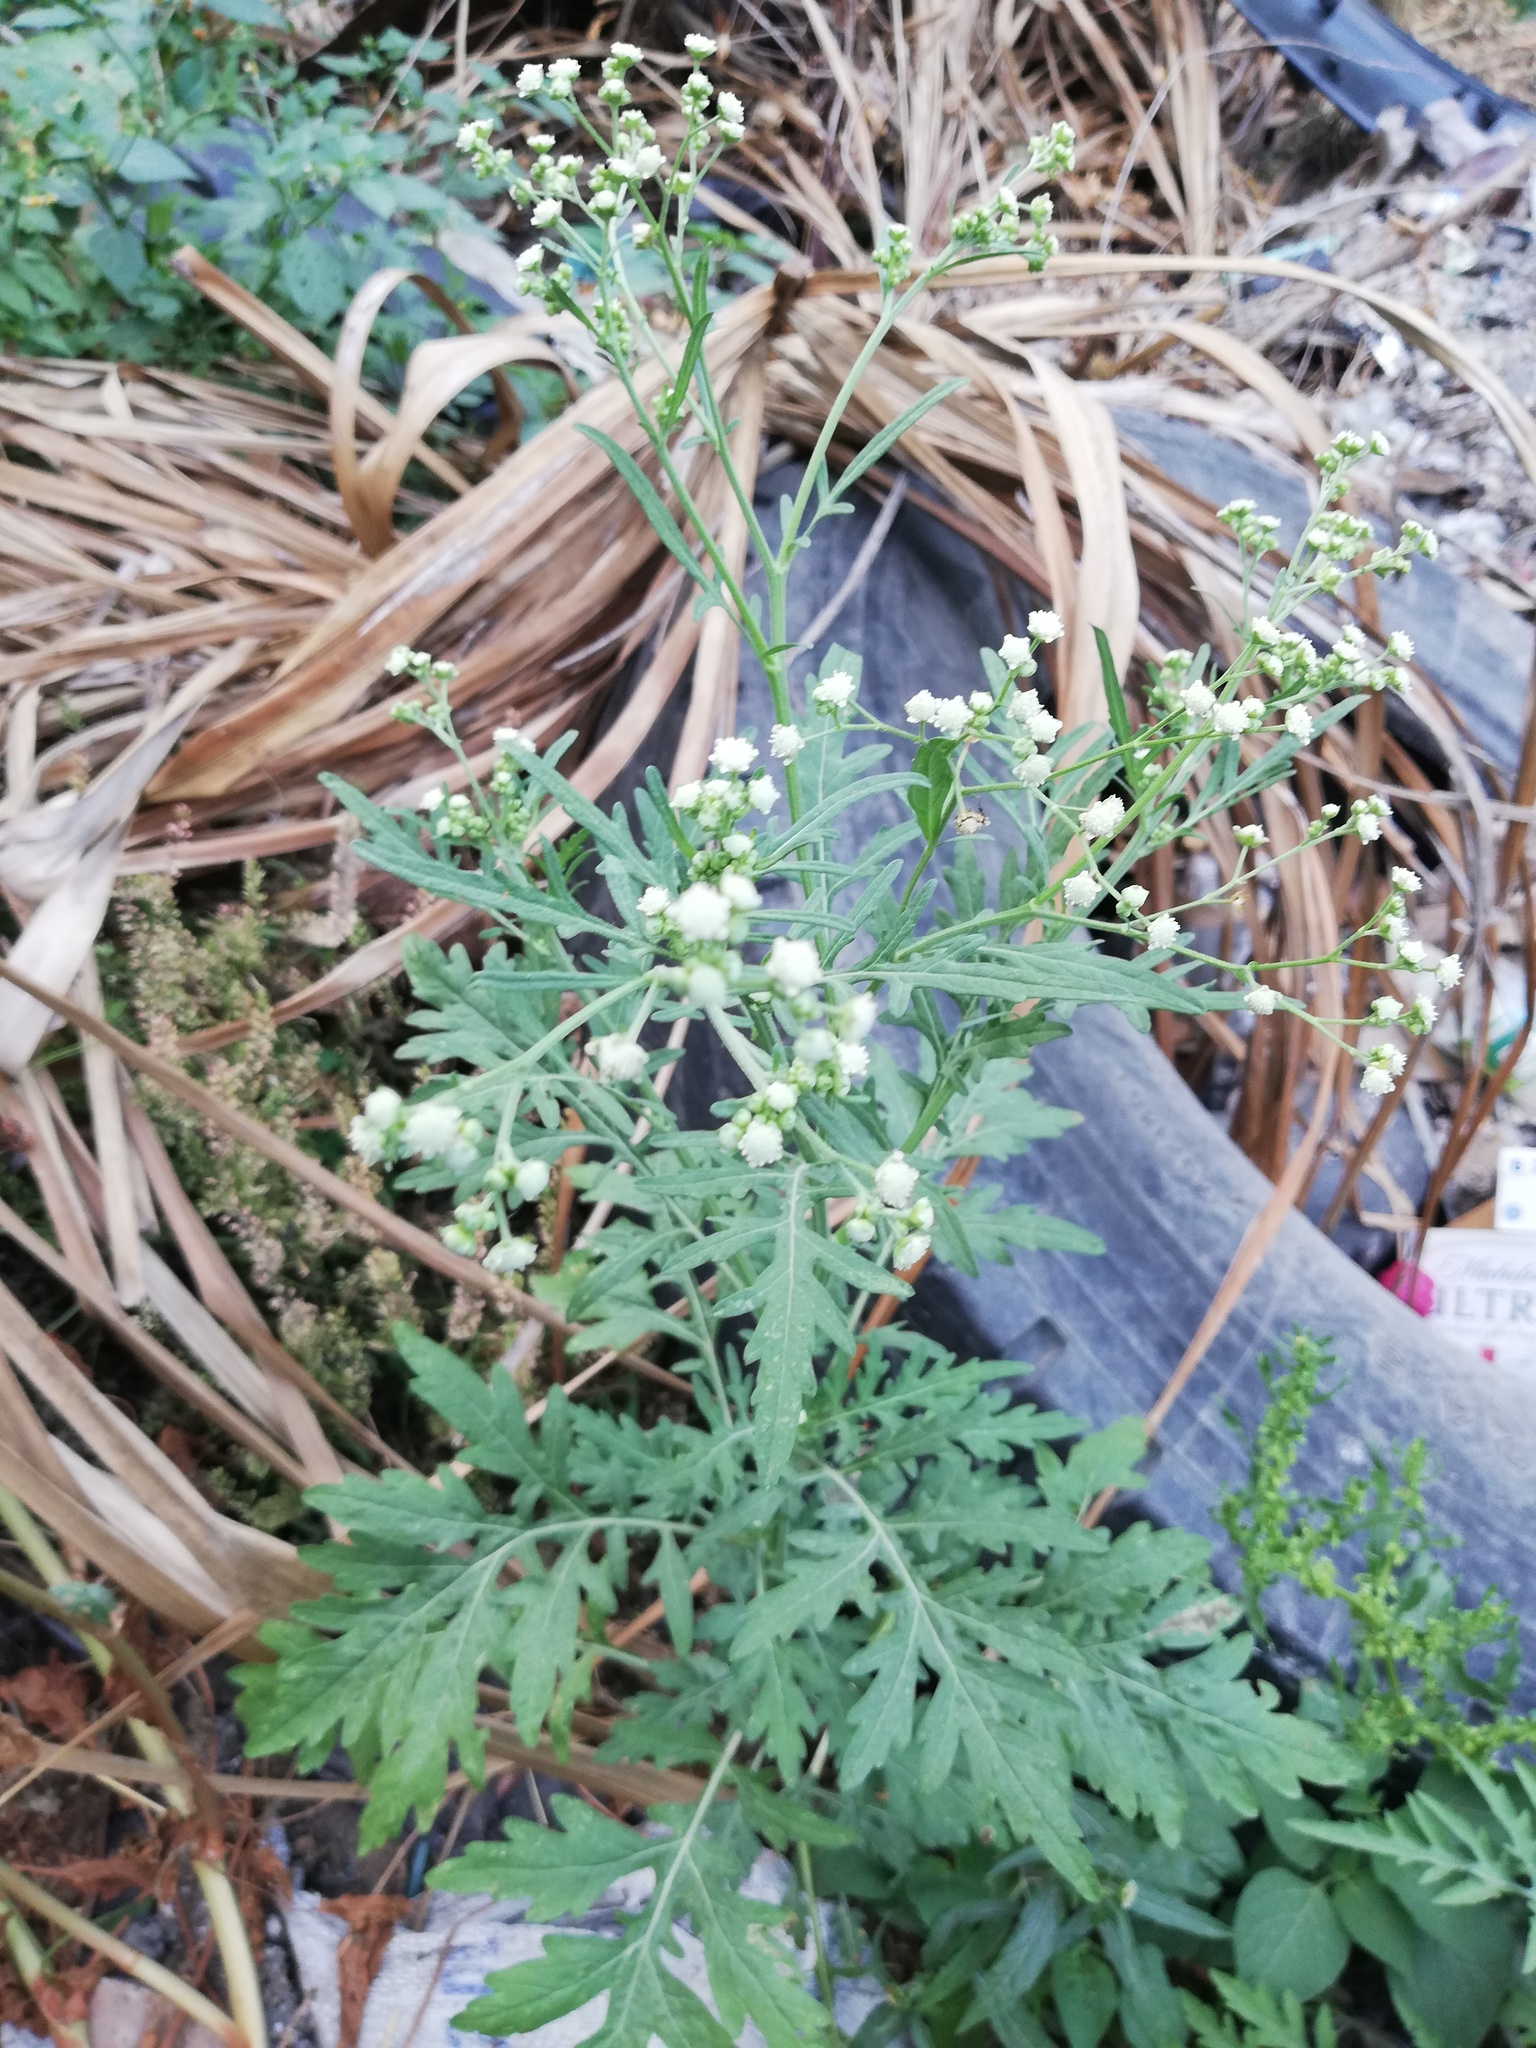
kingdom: Plantae
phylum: Tracheophyta
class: Magnoliopsida
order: Asterales
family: Asteraceae
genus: Parthenium
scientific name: Parthenium hysterophorus
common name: Santa maria feverfew
